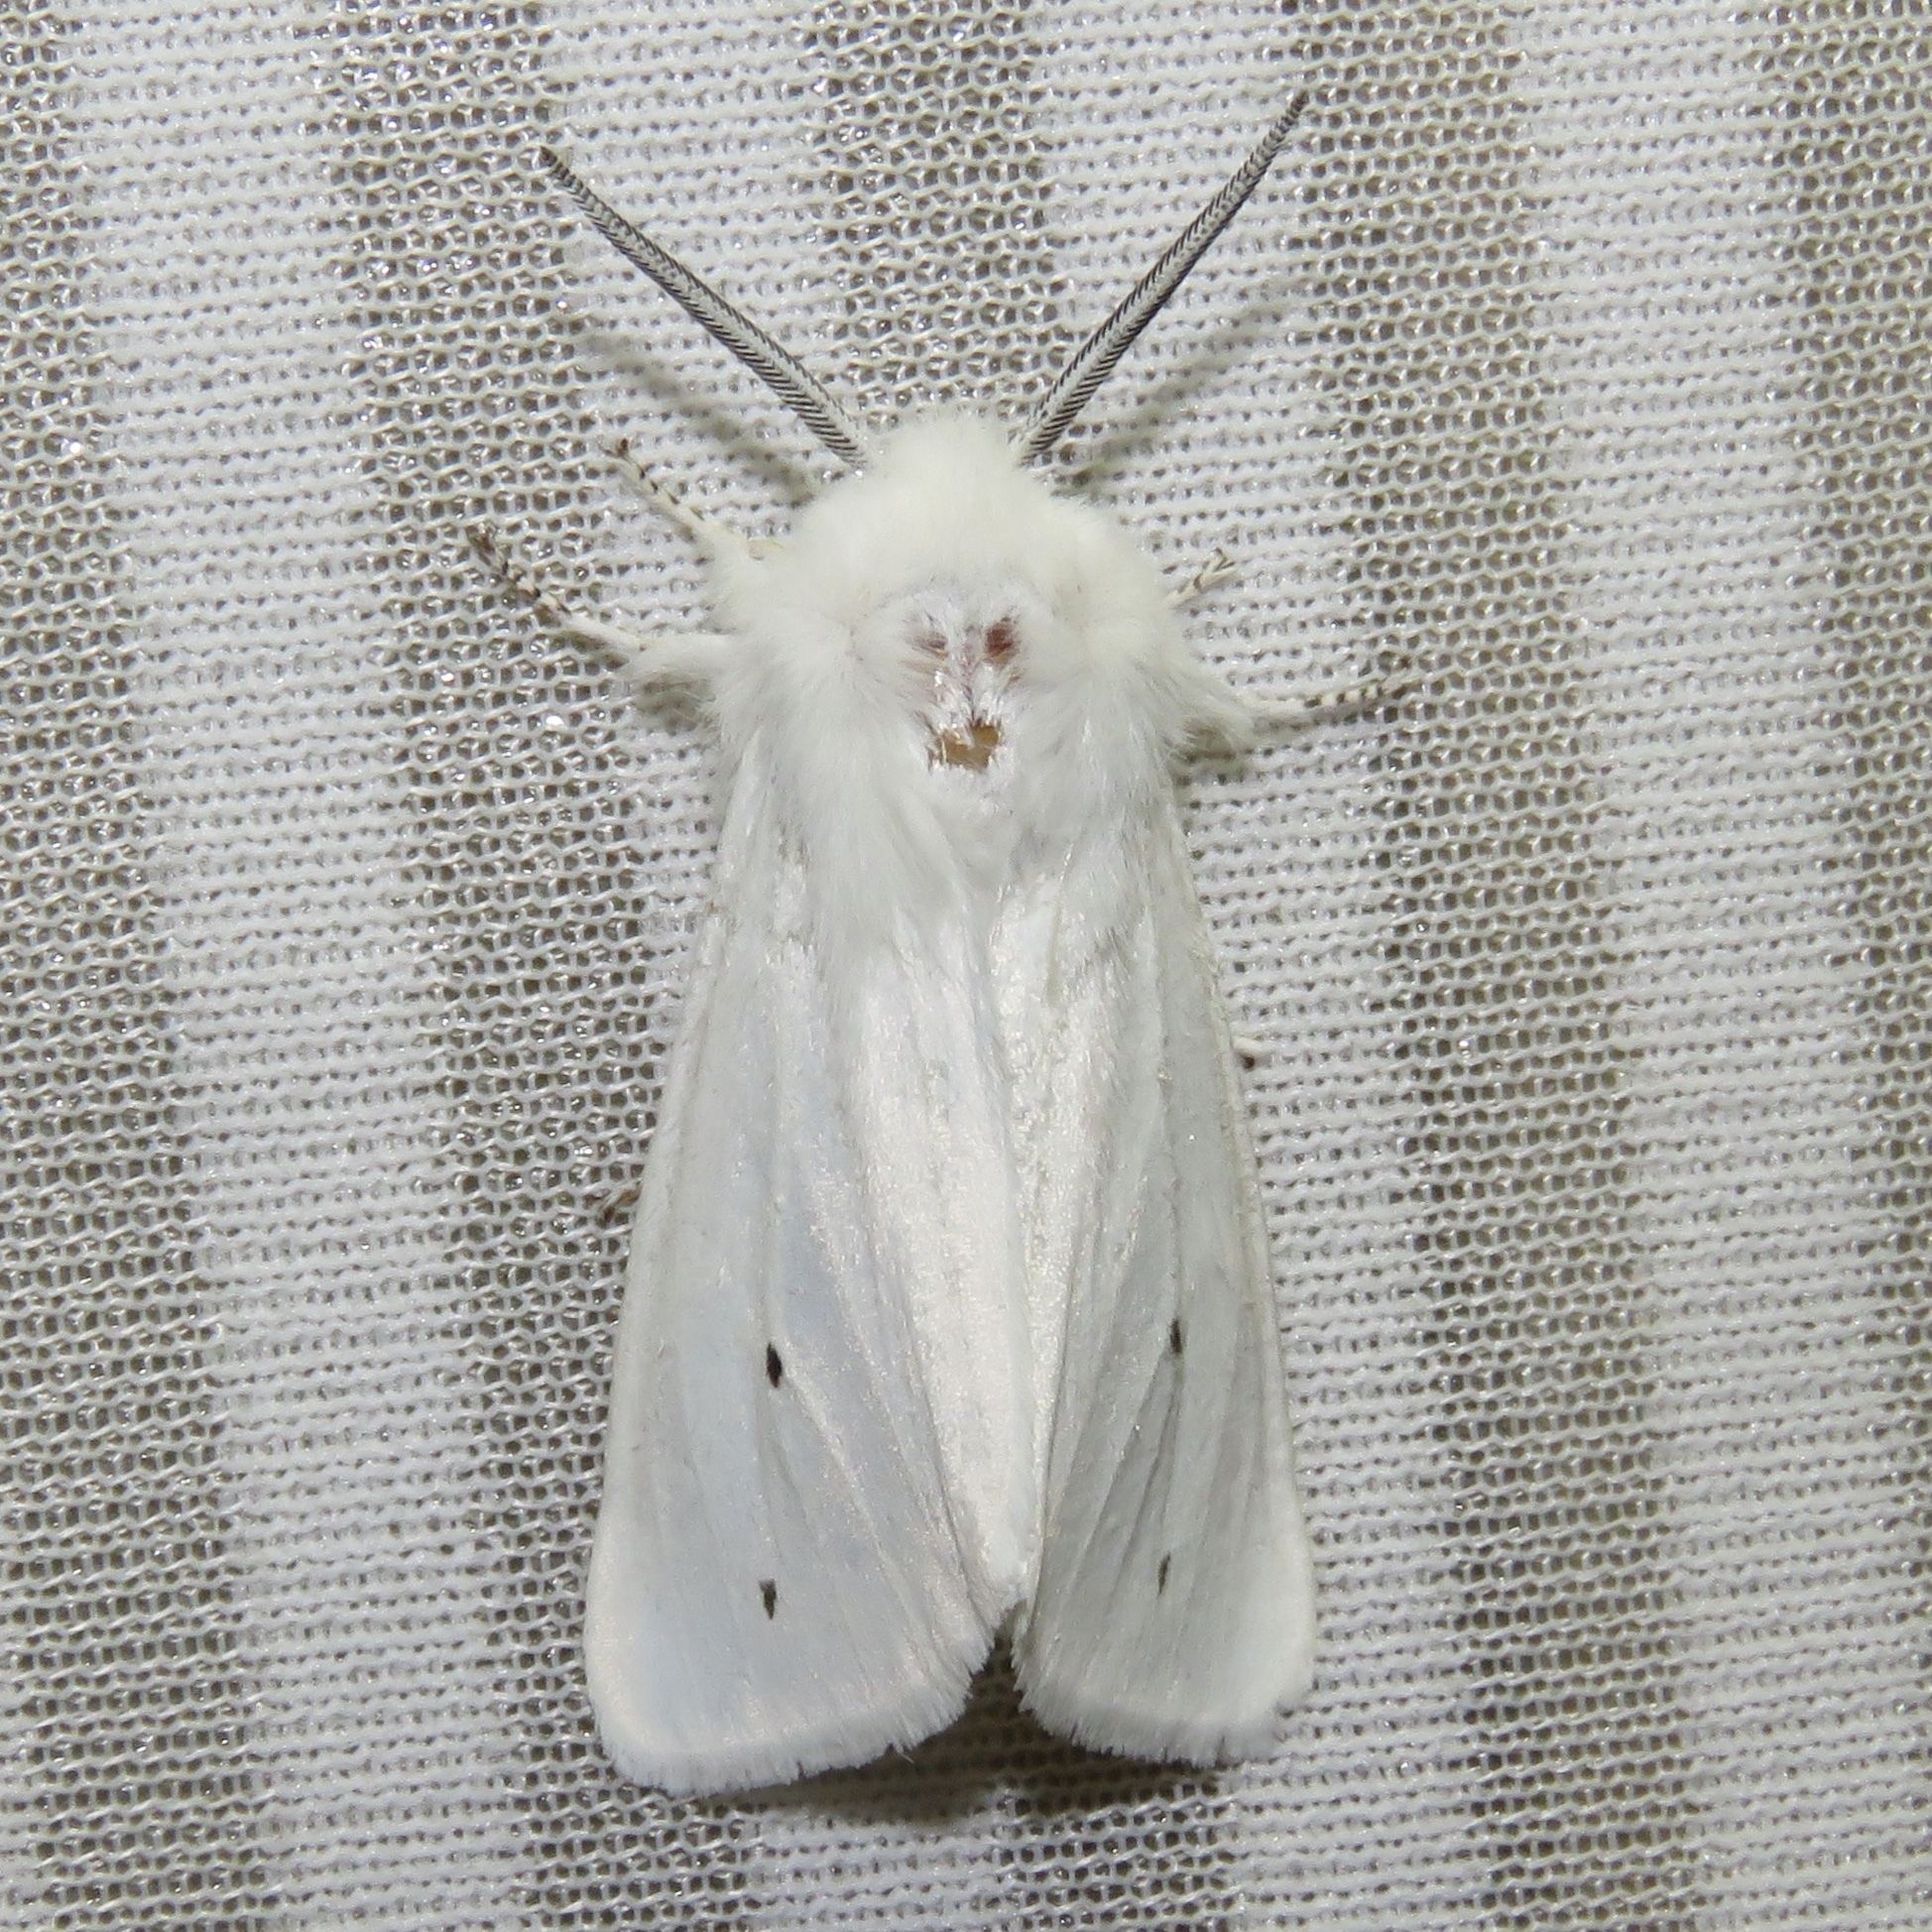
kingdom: Animalia
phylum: Arthropoda
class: Insecta
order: Lepidoptera
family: Erebidae
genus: Spilosoma
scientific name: Spilosoma virginica
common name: Virginia tiger moth
